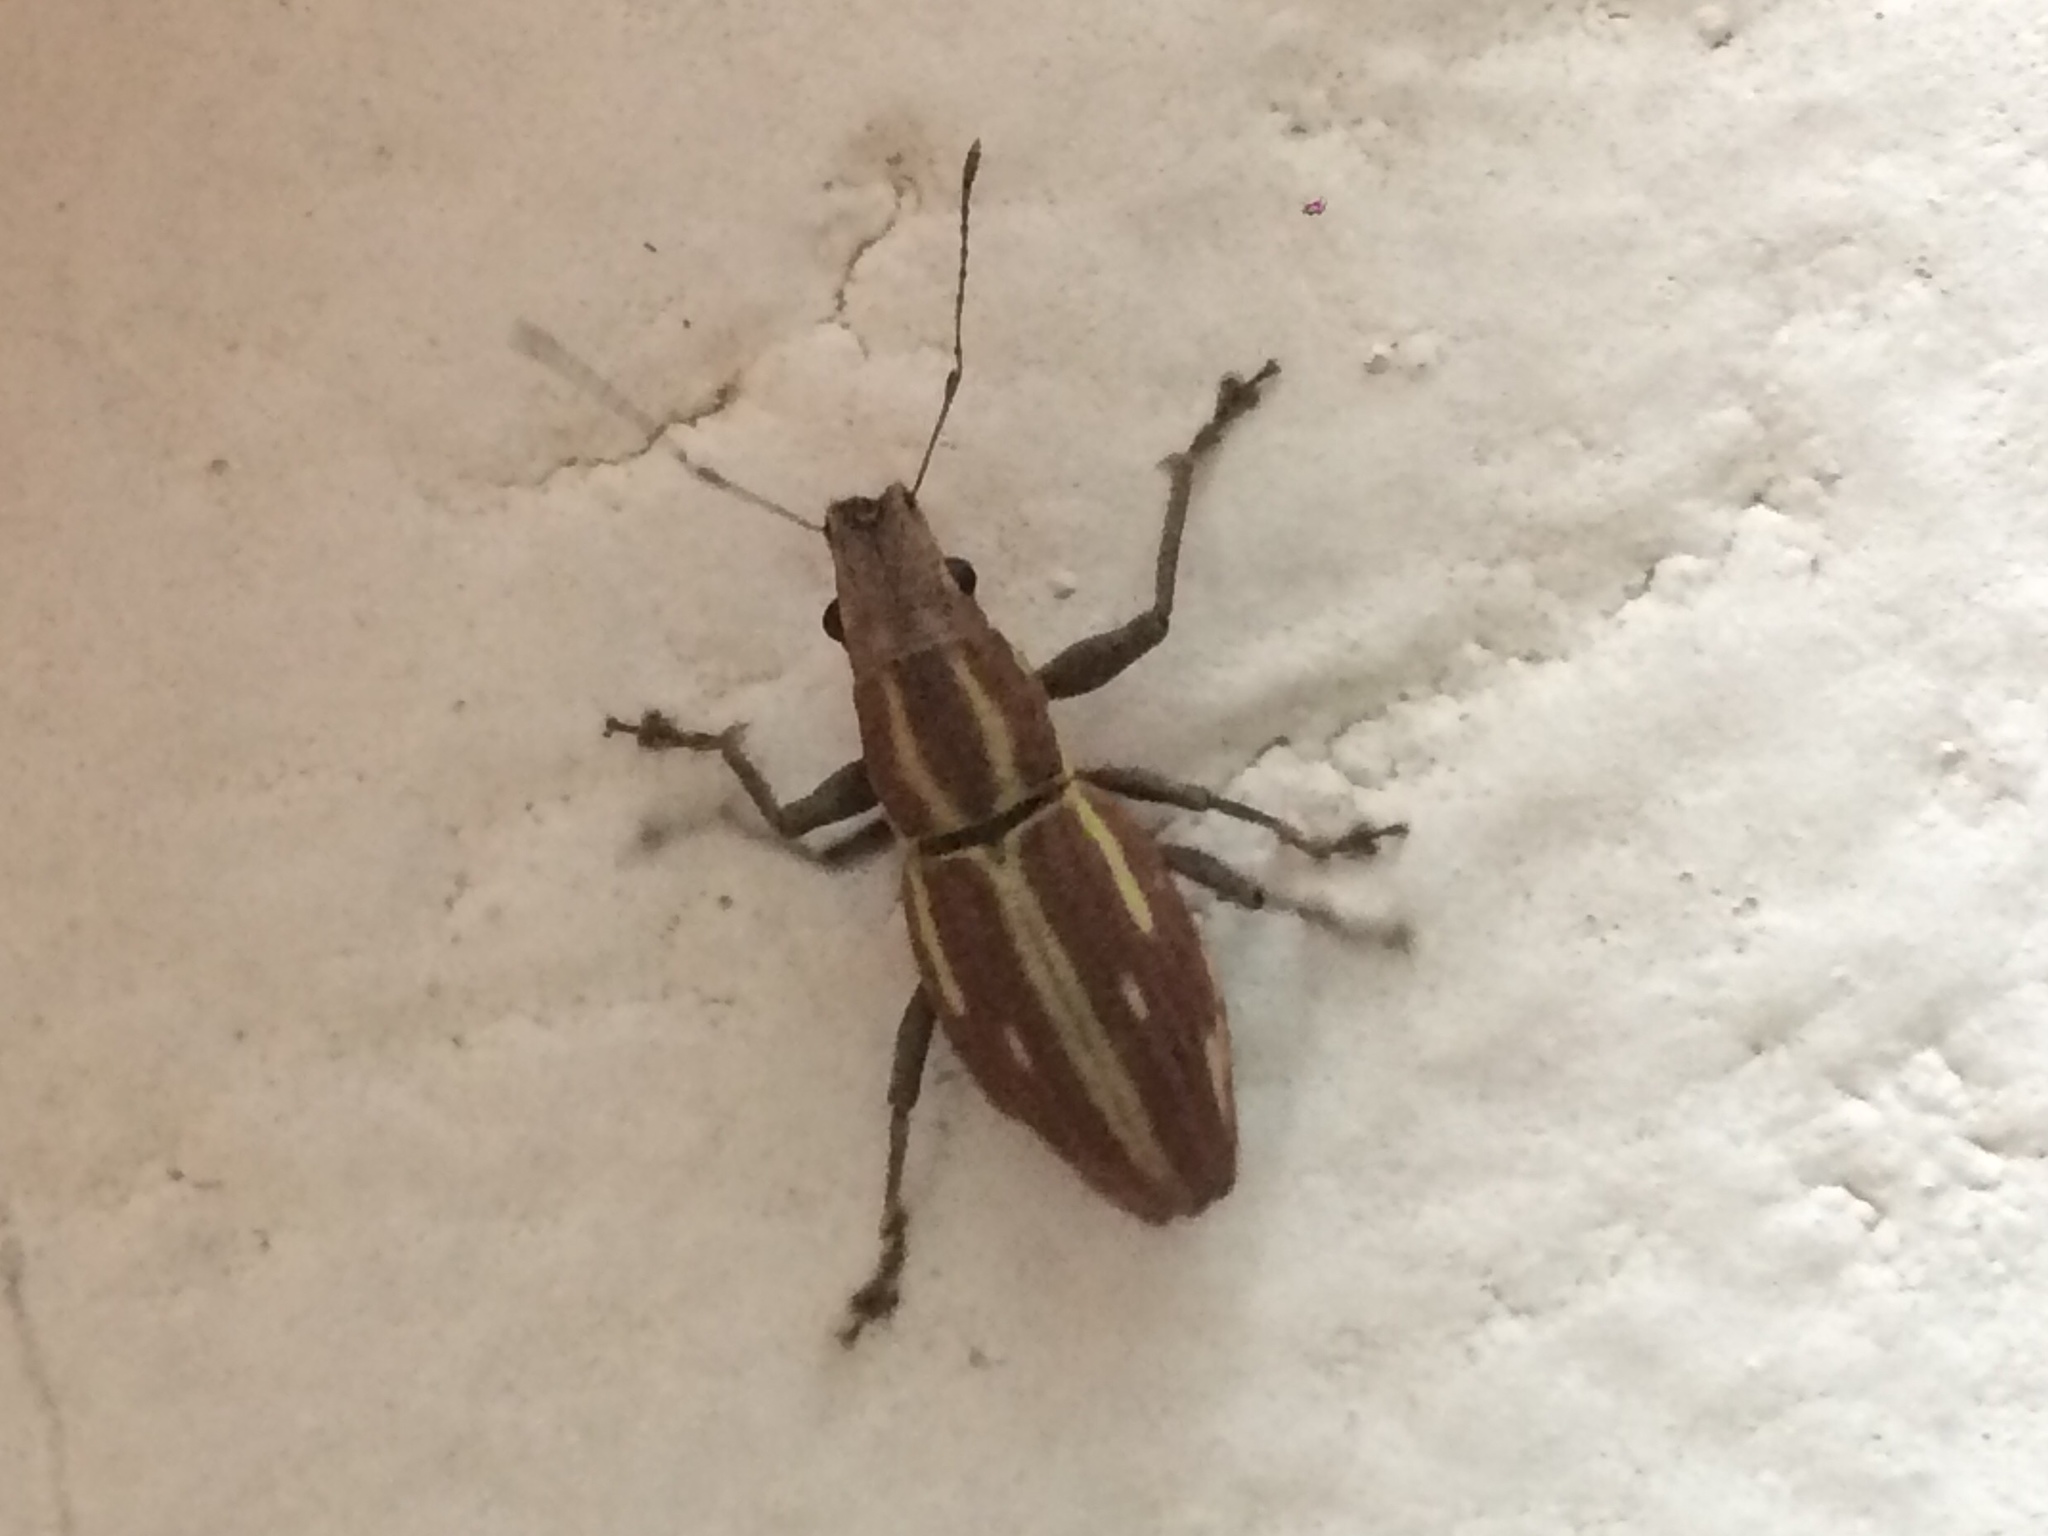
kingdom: Animalia
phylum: Arthropoda
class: Insecta
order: Coleoptera
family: Curculionidae
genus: Naupactus
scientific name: Naupactus dissimilis
